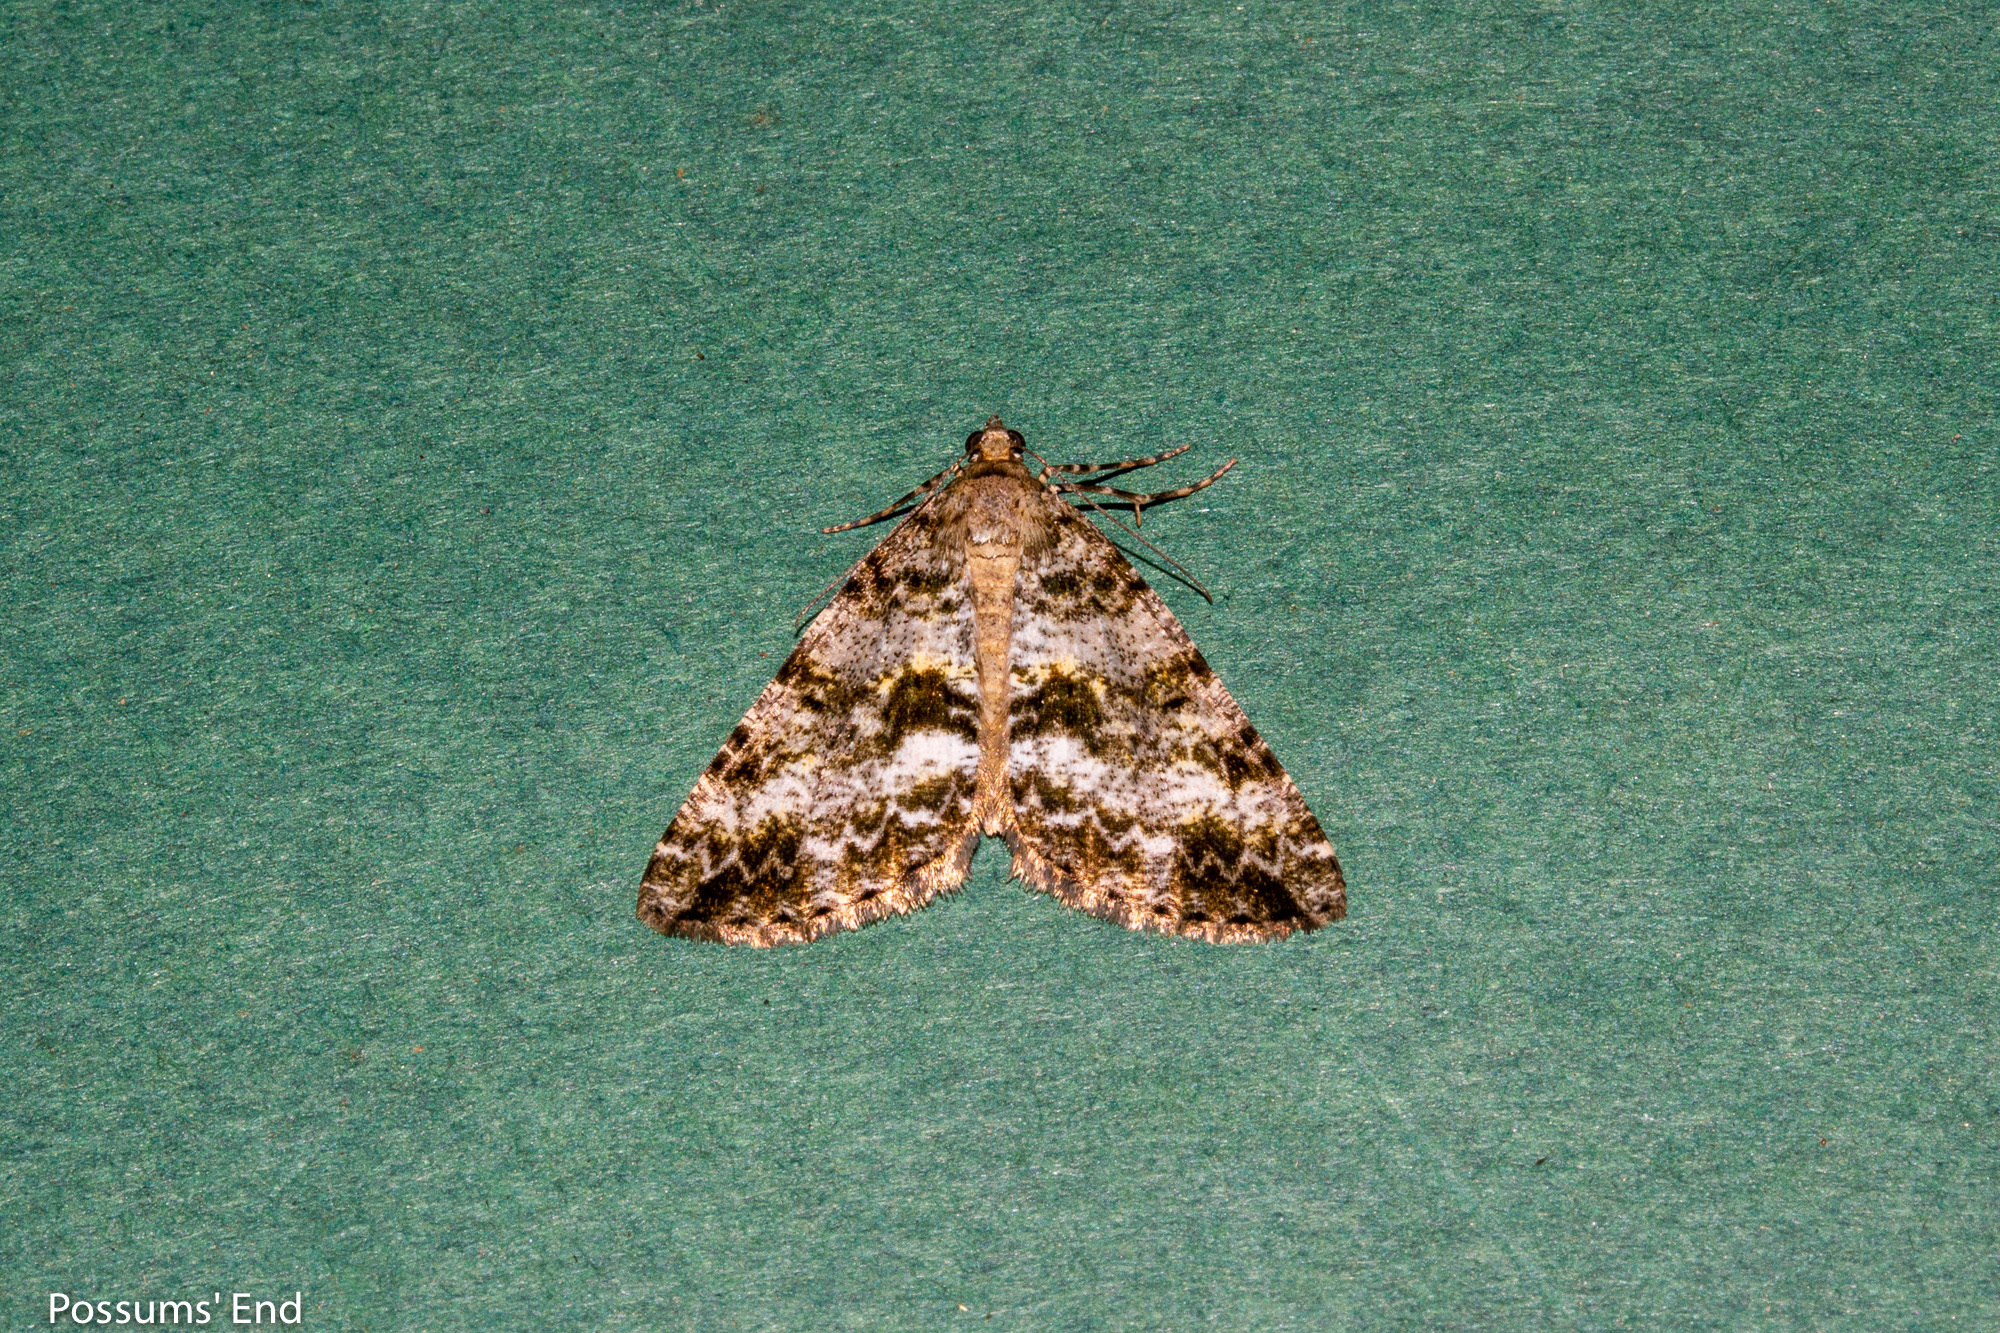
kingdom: Animalia
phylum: Arthropoda
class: Insecta
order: Lepidoptera
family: Geometridae
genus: Pseudocoremia
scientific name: Pseudocoremia lactiflua
